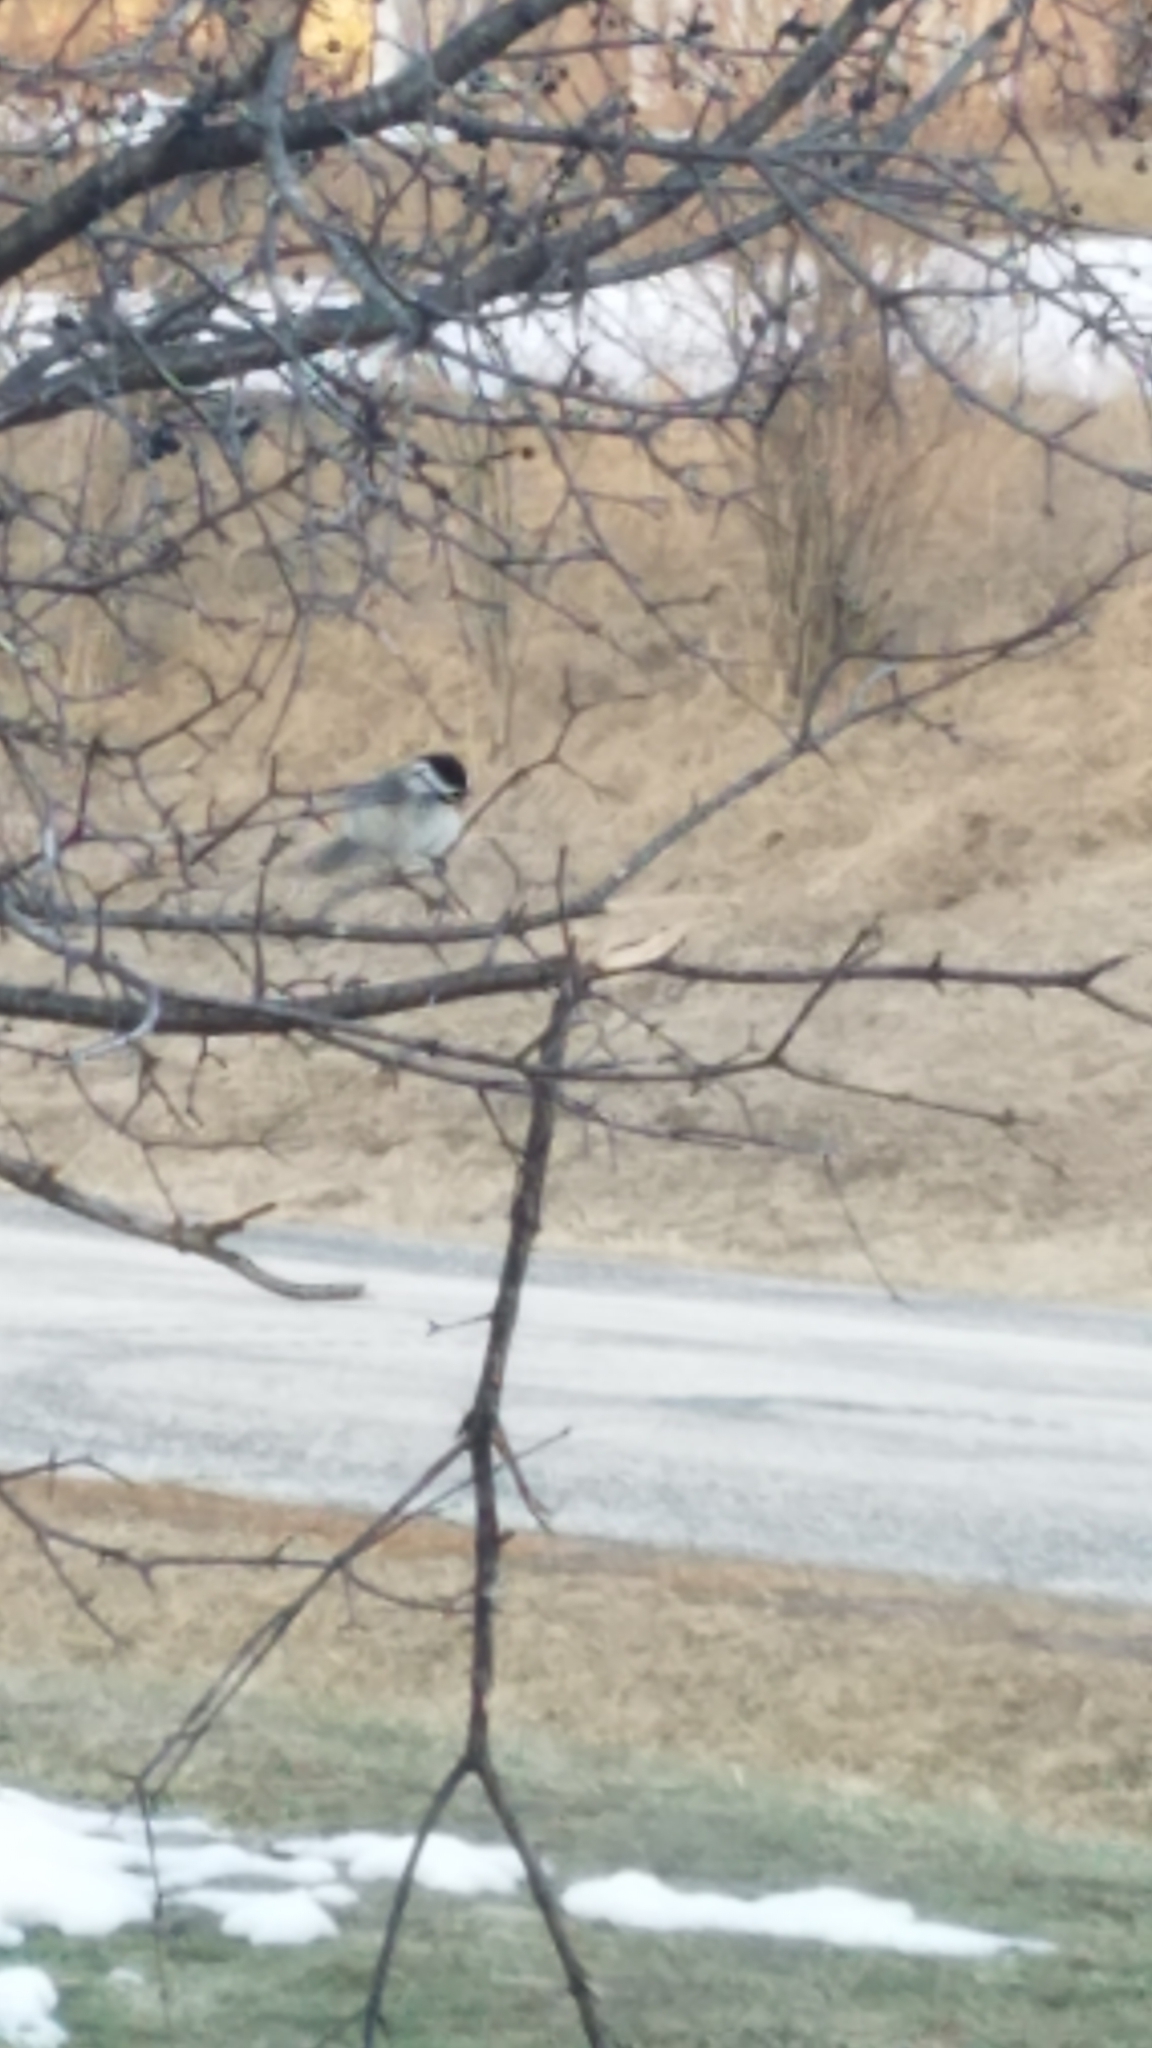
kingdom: Animalia
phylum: Chordata
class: Aves
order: Passeriformes
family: Paridae
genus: Poecile
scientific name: Poecile atricapillus
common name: Black-capped chickadee
